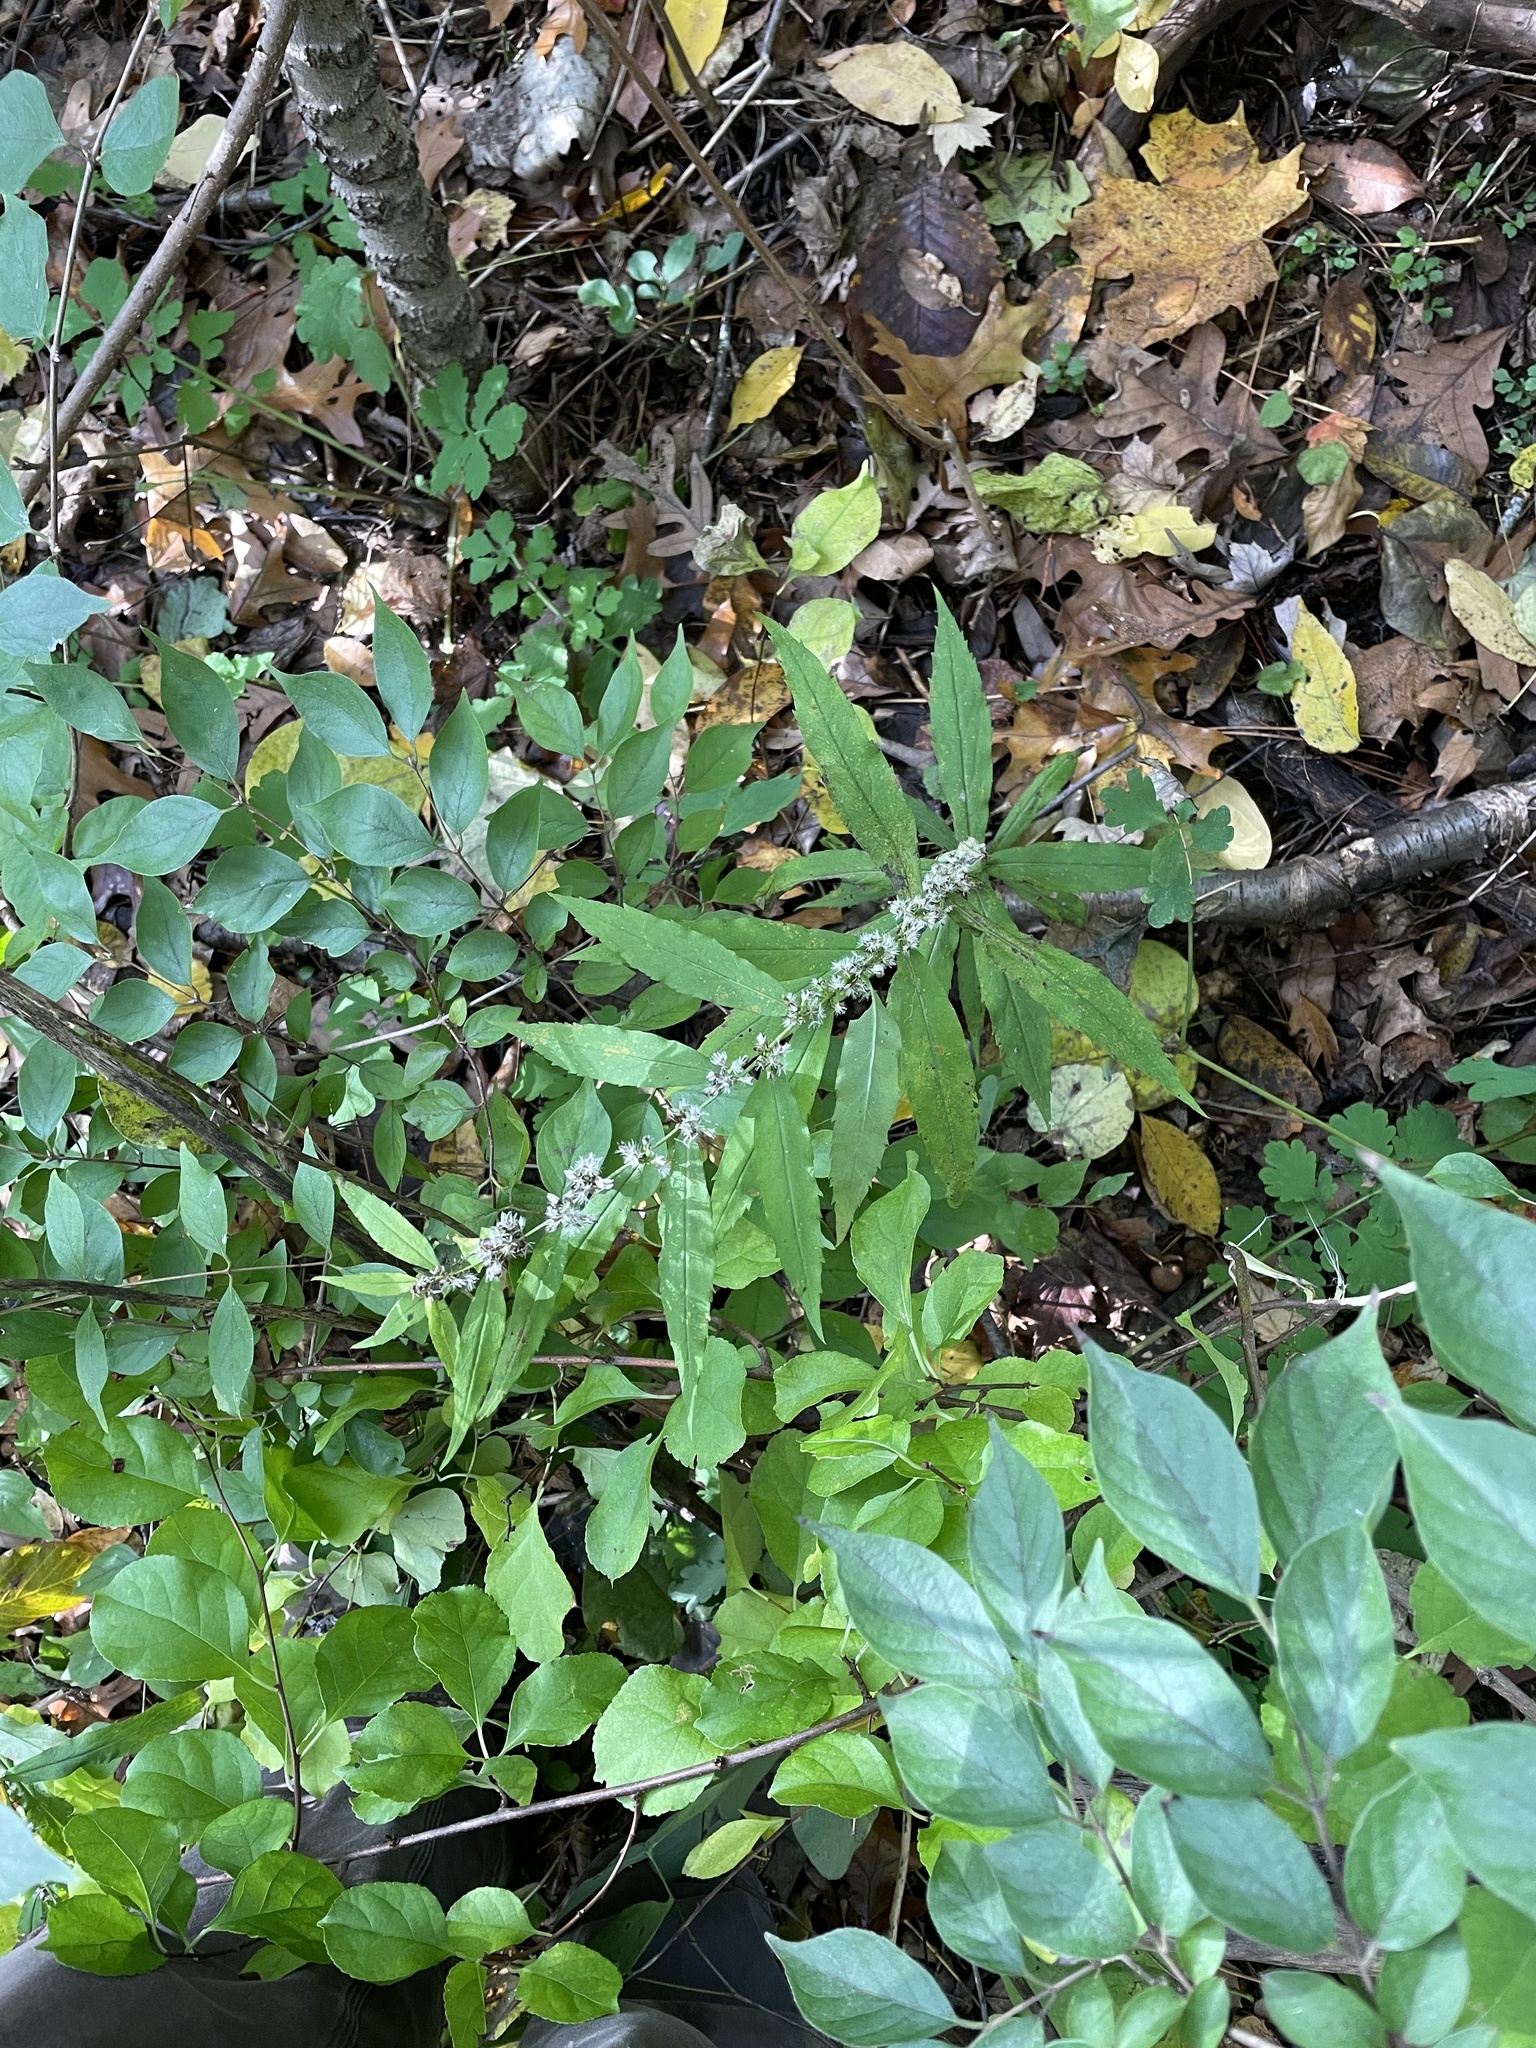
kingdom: Plantae
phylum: Tracheophyta
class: Magnoliopsida
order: Asterales
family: Asteraceae
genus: Solidago
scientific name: Solidago caesia
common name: Woodland goldenrod
